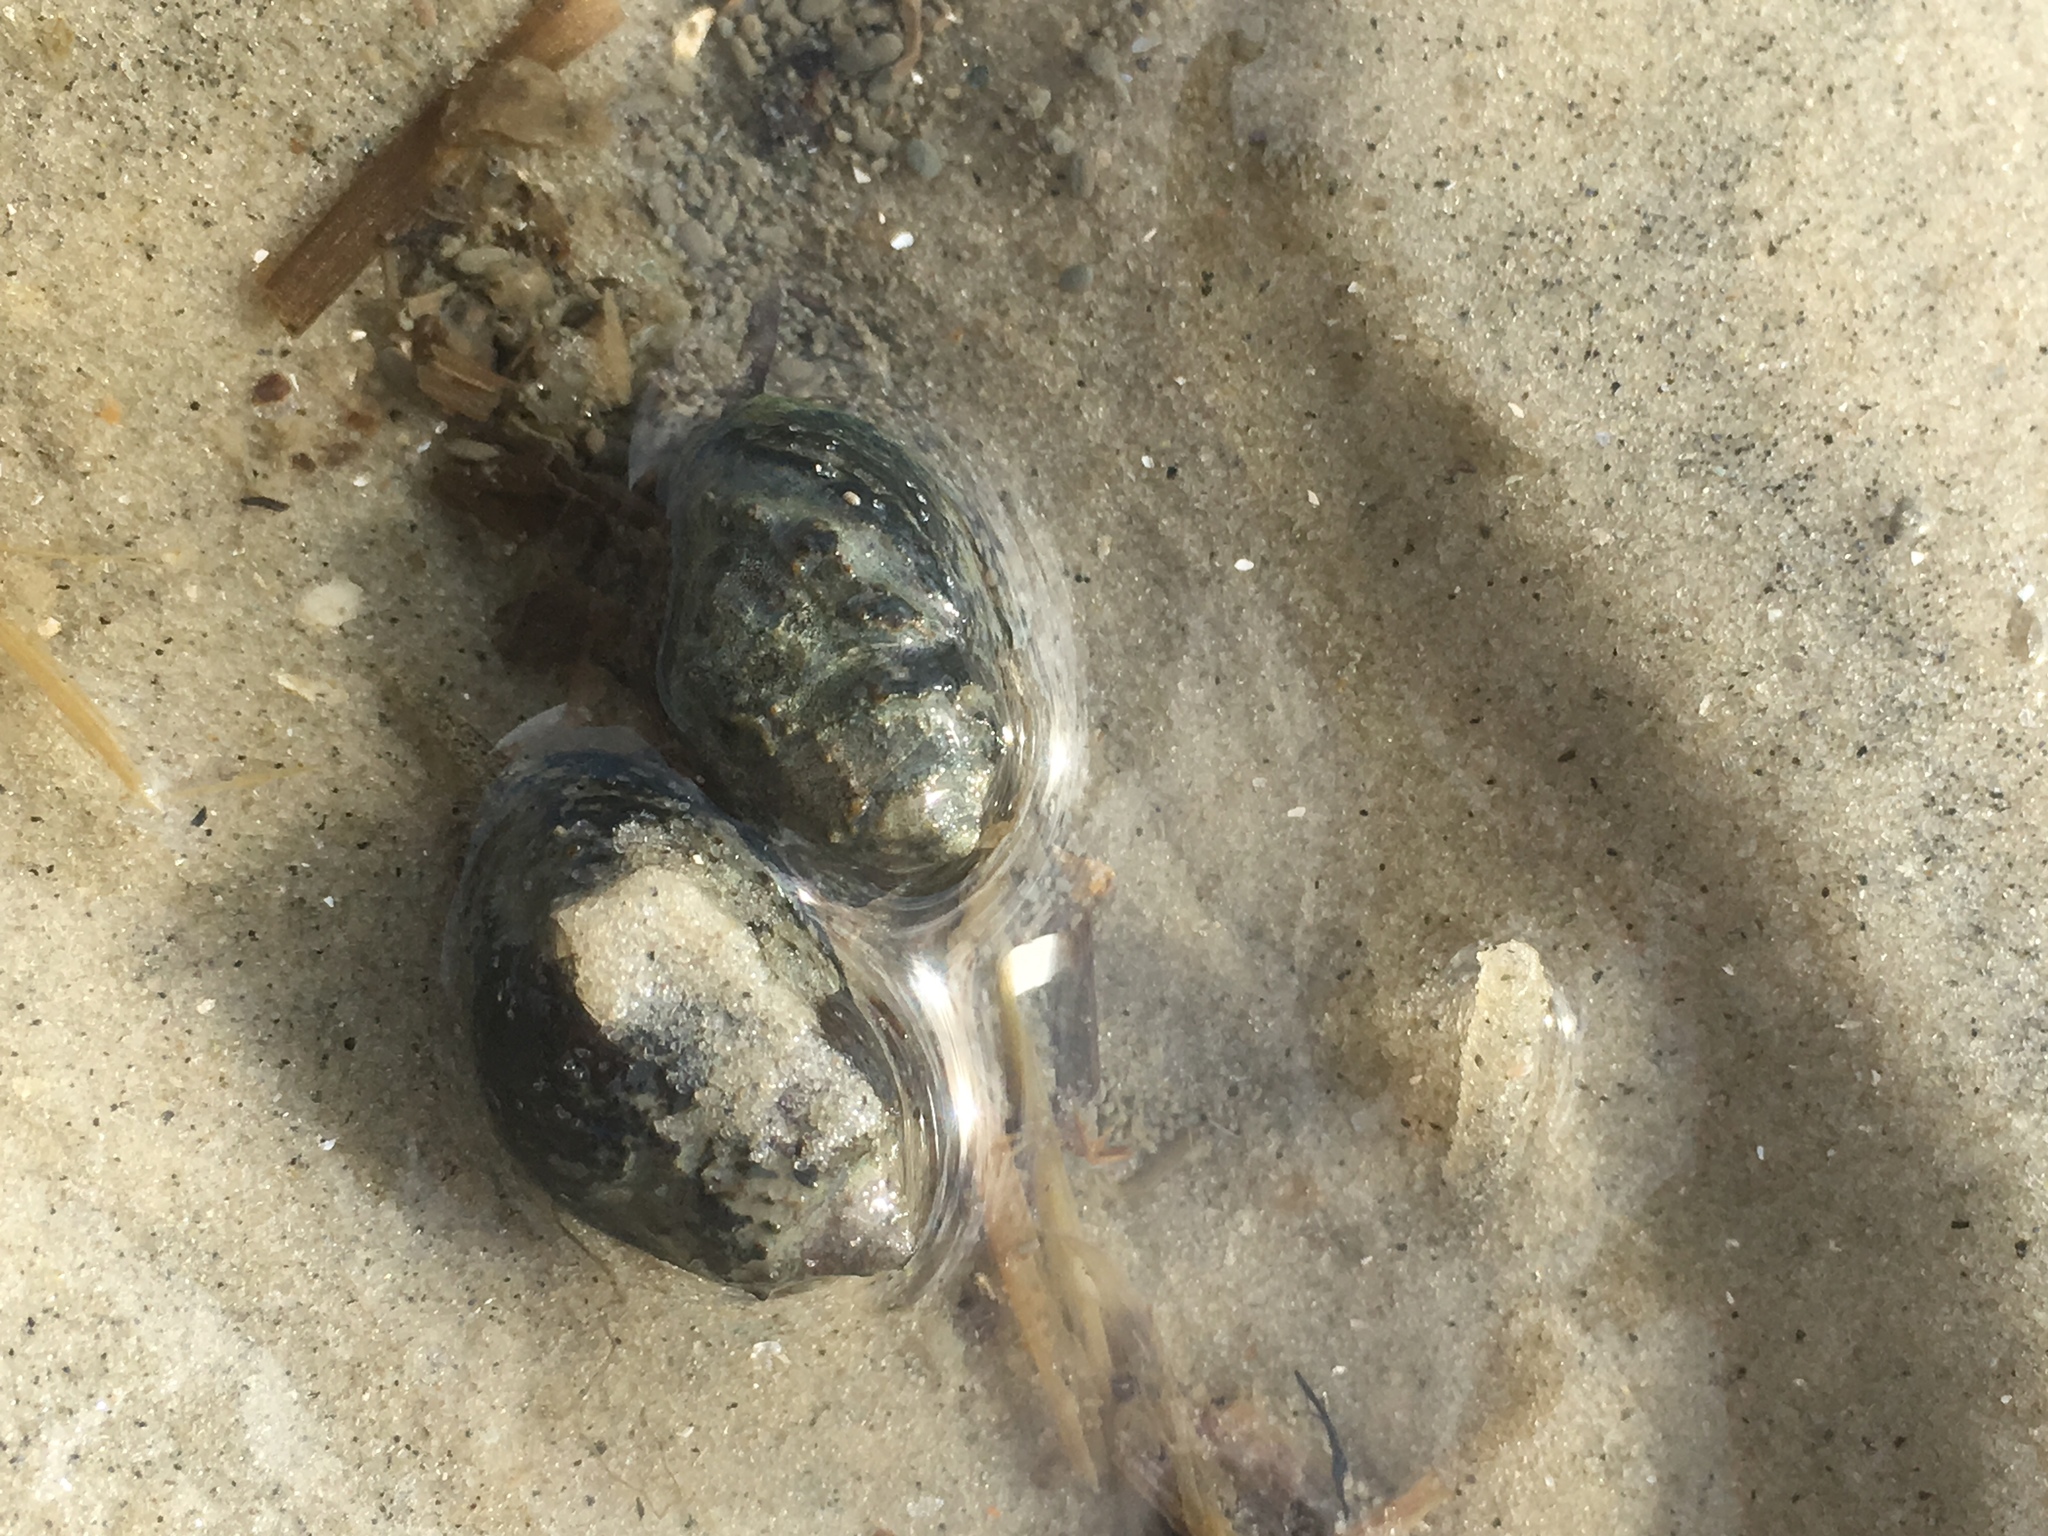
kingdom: Animalia
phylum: Mollusca
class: Gastropoda
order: Neogastropoda
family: Nassariidae
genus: Ilyanassa
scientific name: Ilyanassa obsoleta
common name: Eastern mudsnail
